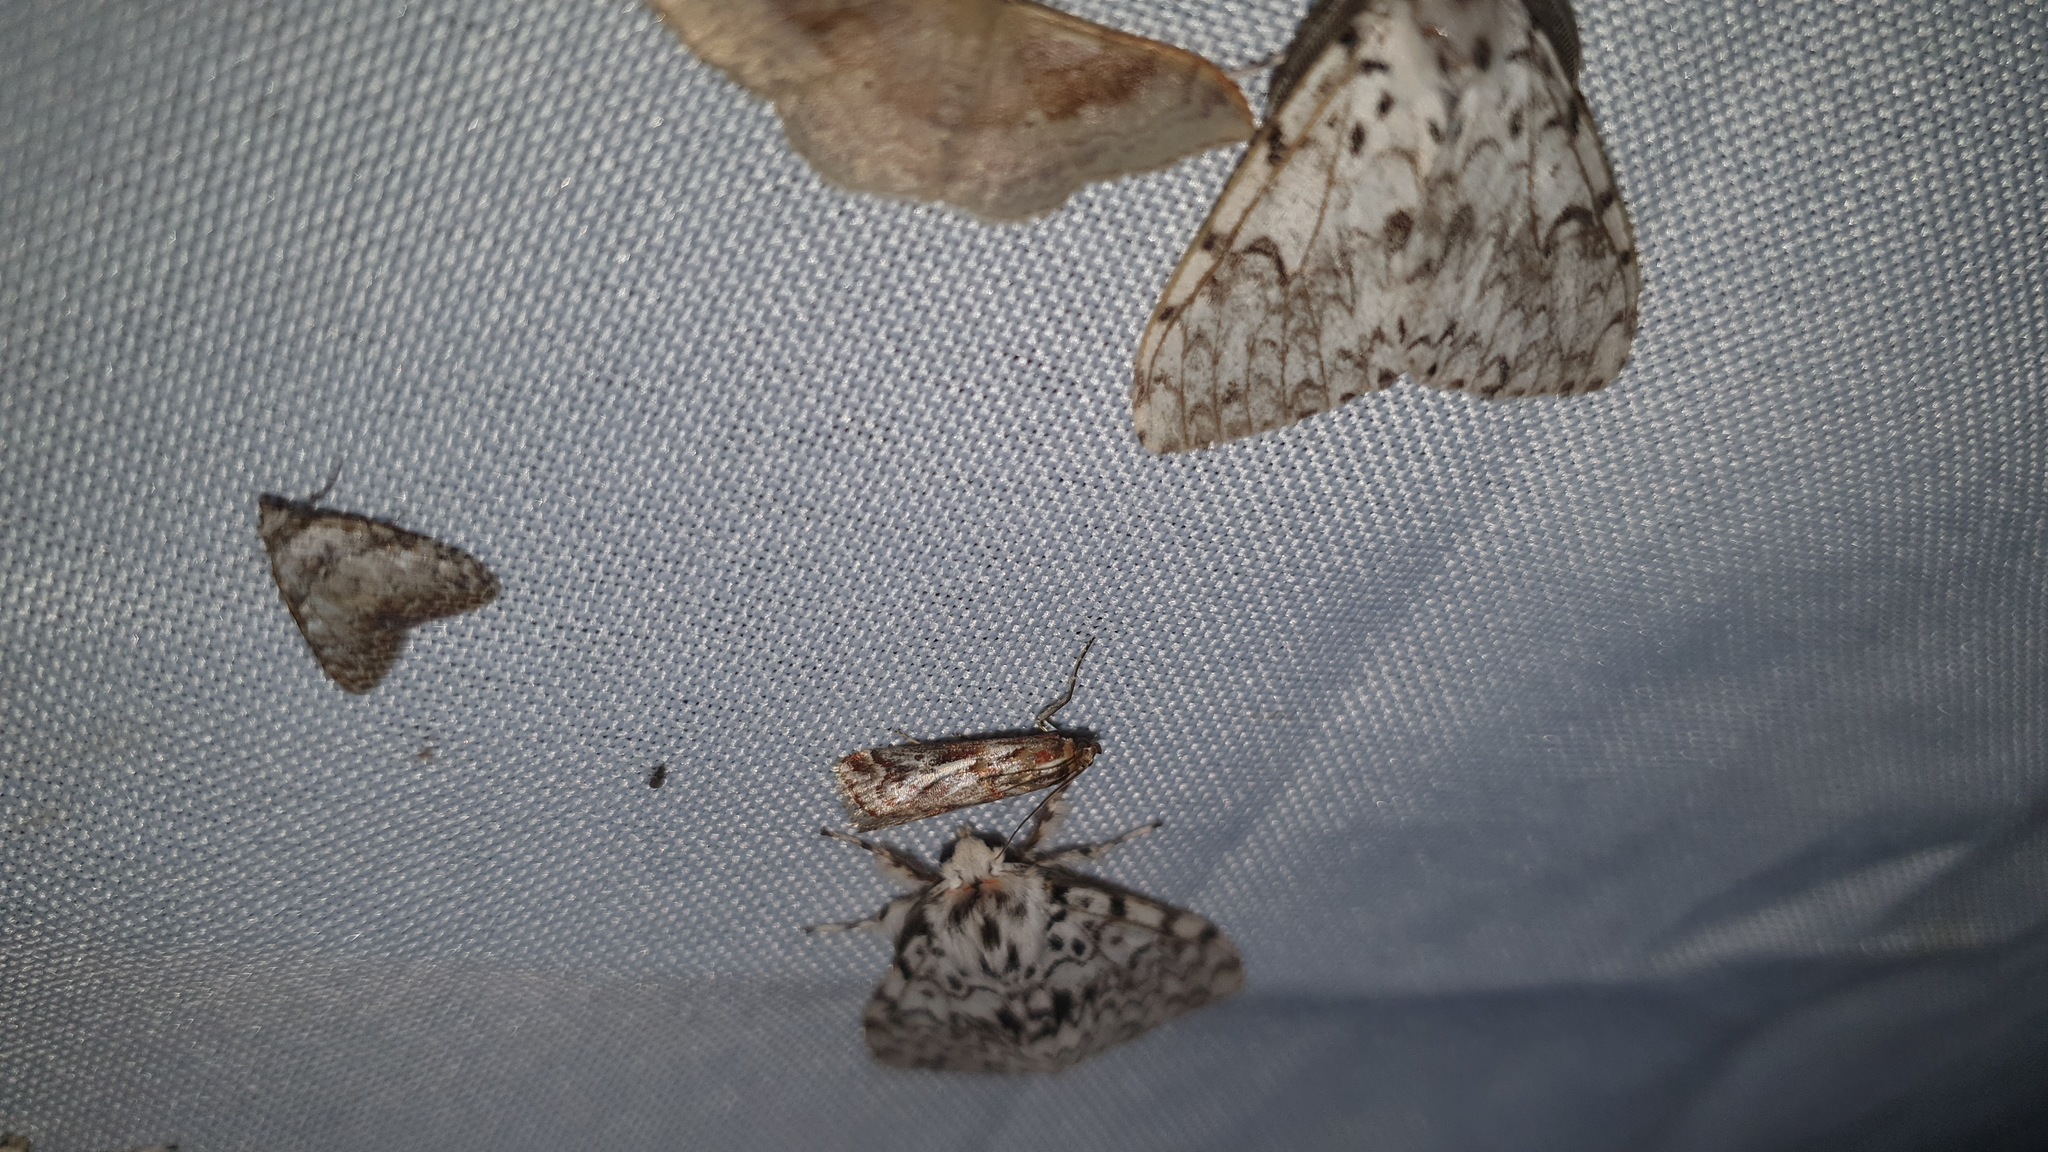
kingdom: Animalia
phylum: Arthropoda
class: Insecta
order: Lepidoptera
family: Erebidae
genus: Lymantria
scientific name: Lymantria monacha
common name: Black arches
